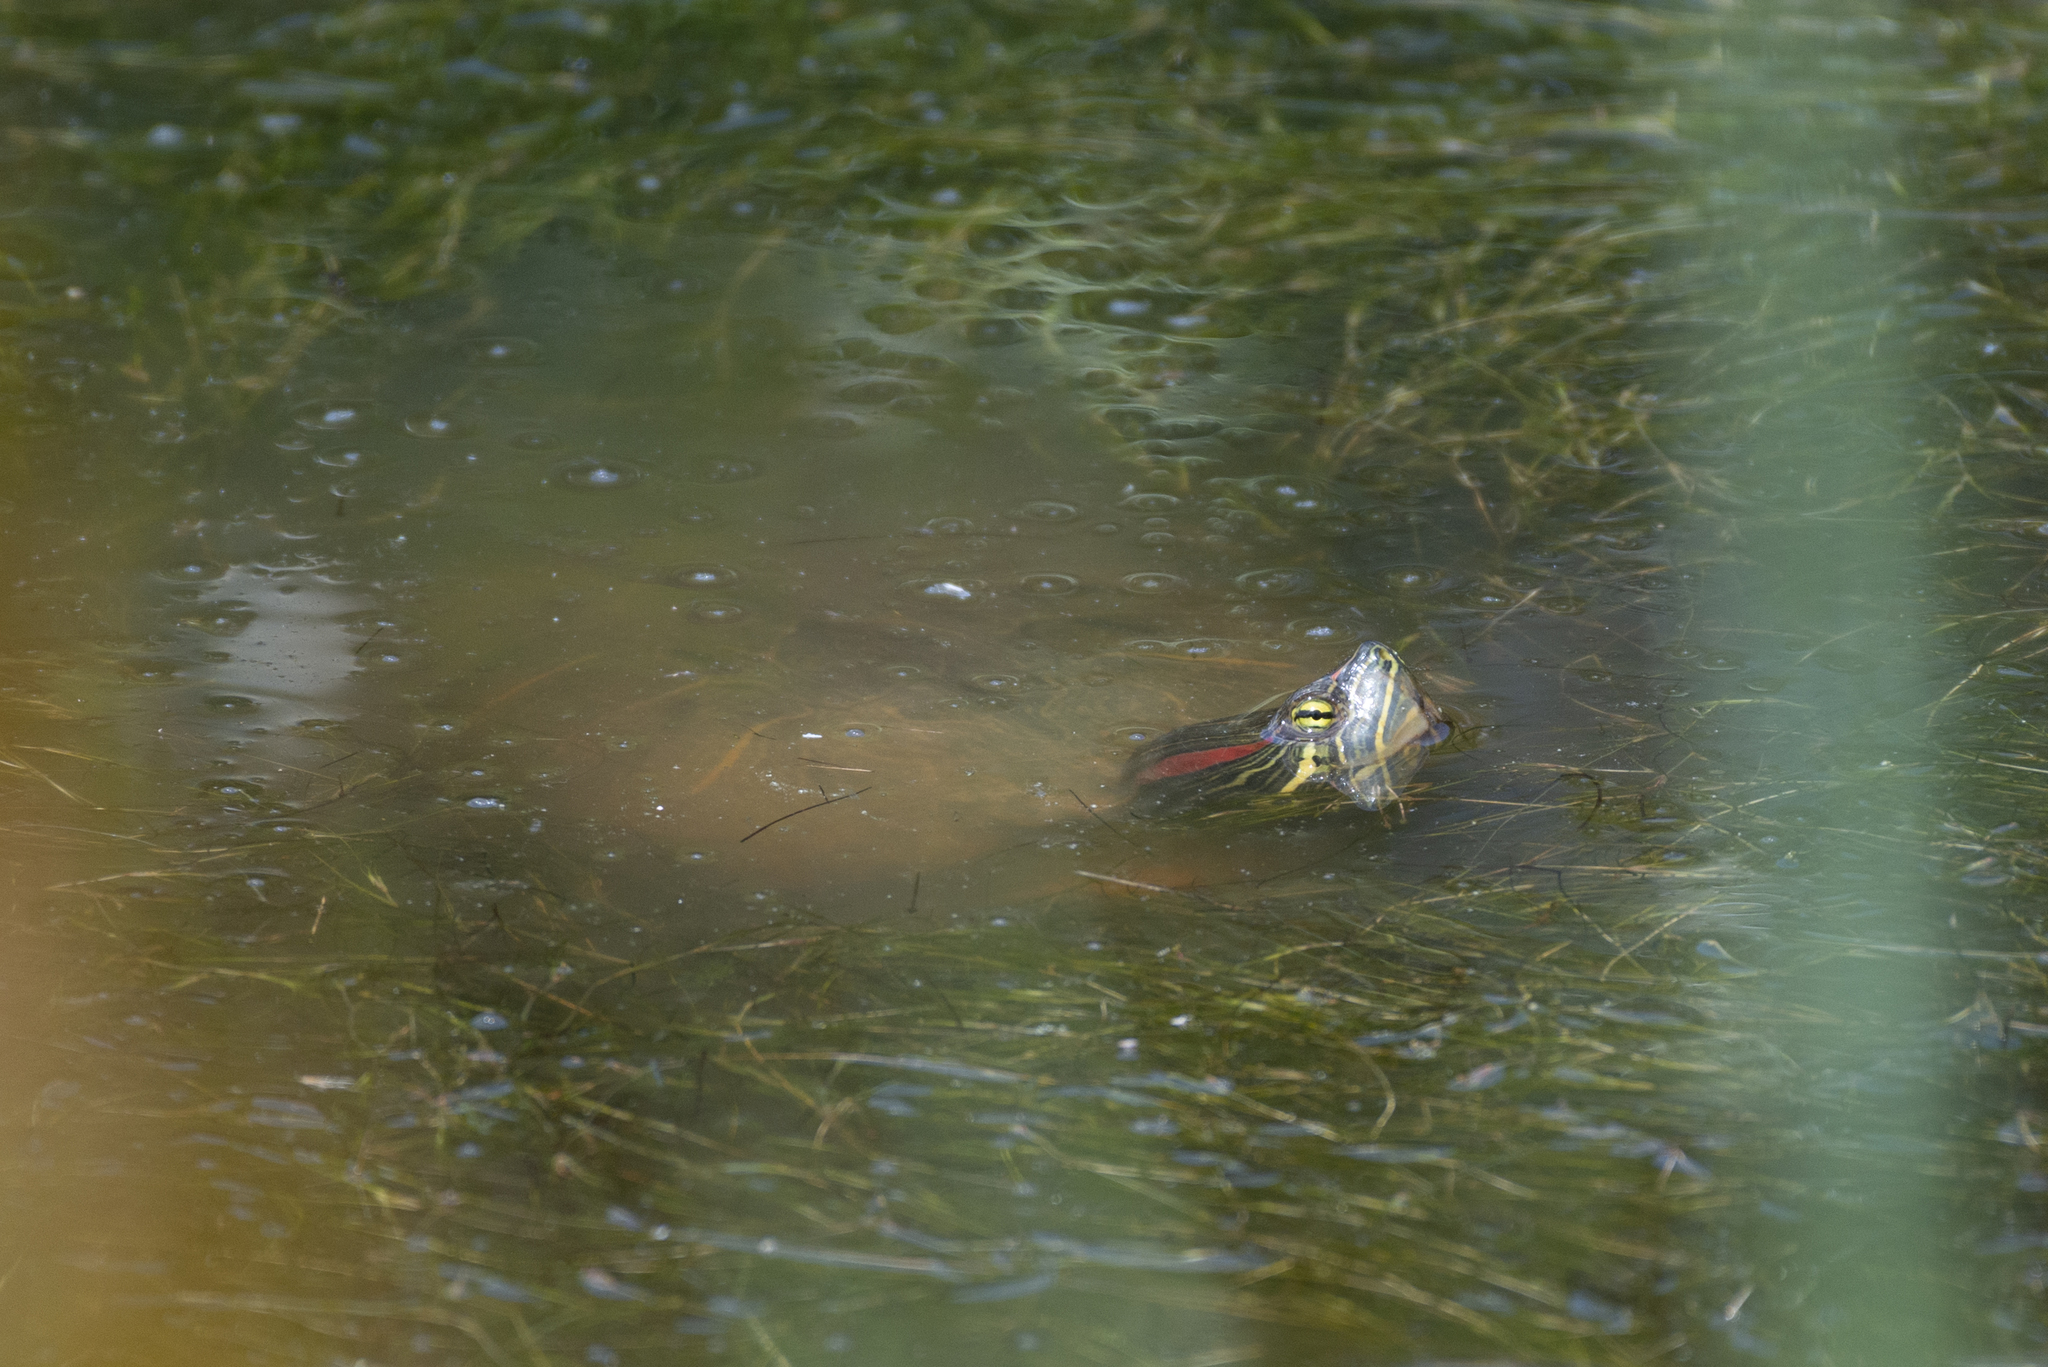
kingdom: Animalia
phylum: Chordata
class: Testudines
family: Emydidae
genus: Trachemys
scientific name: Trachemys scripta
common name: Slider
